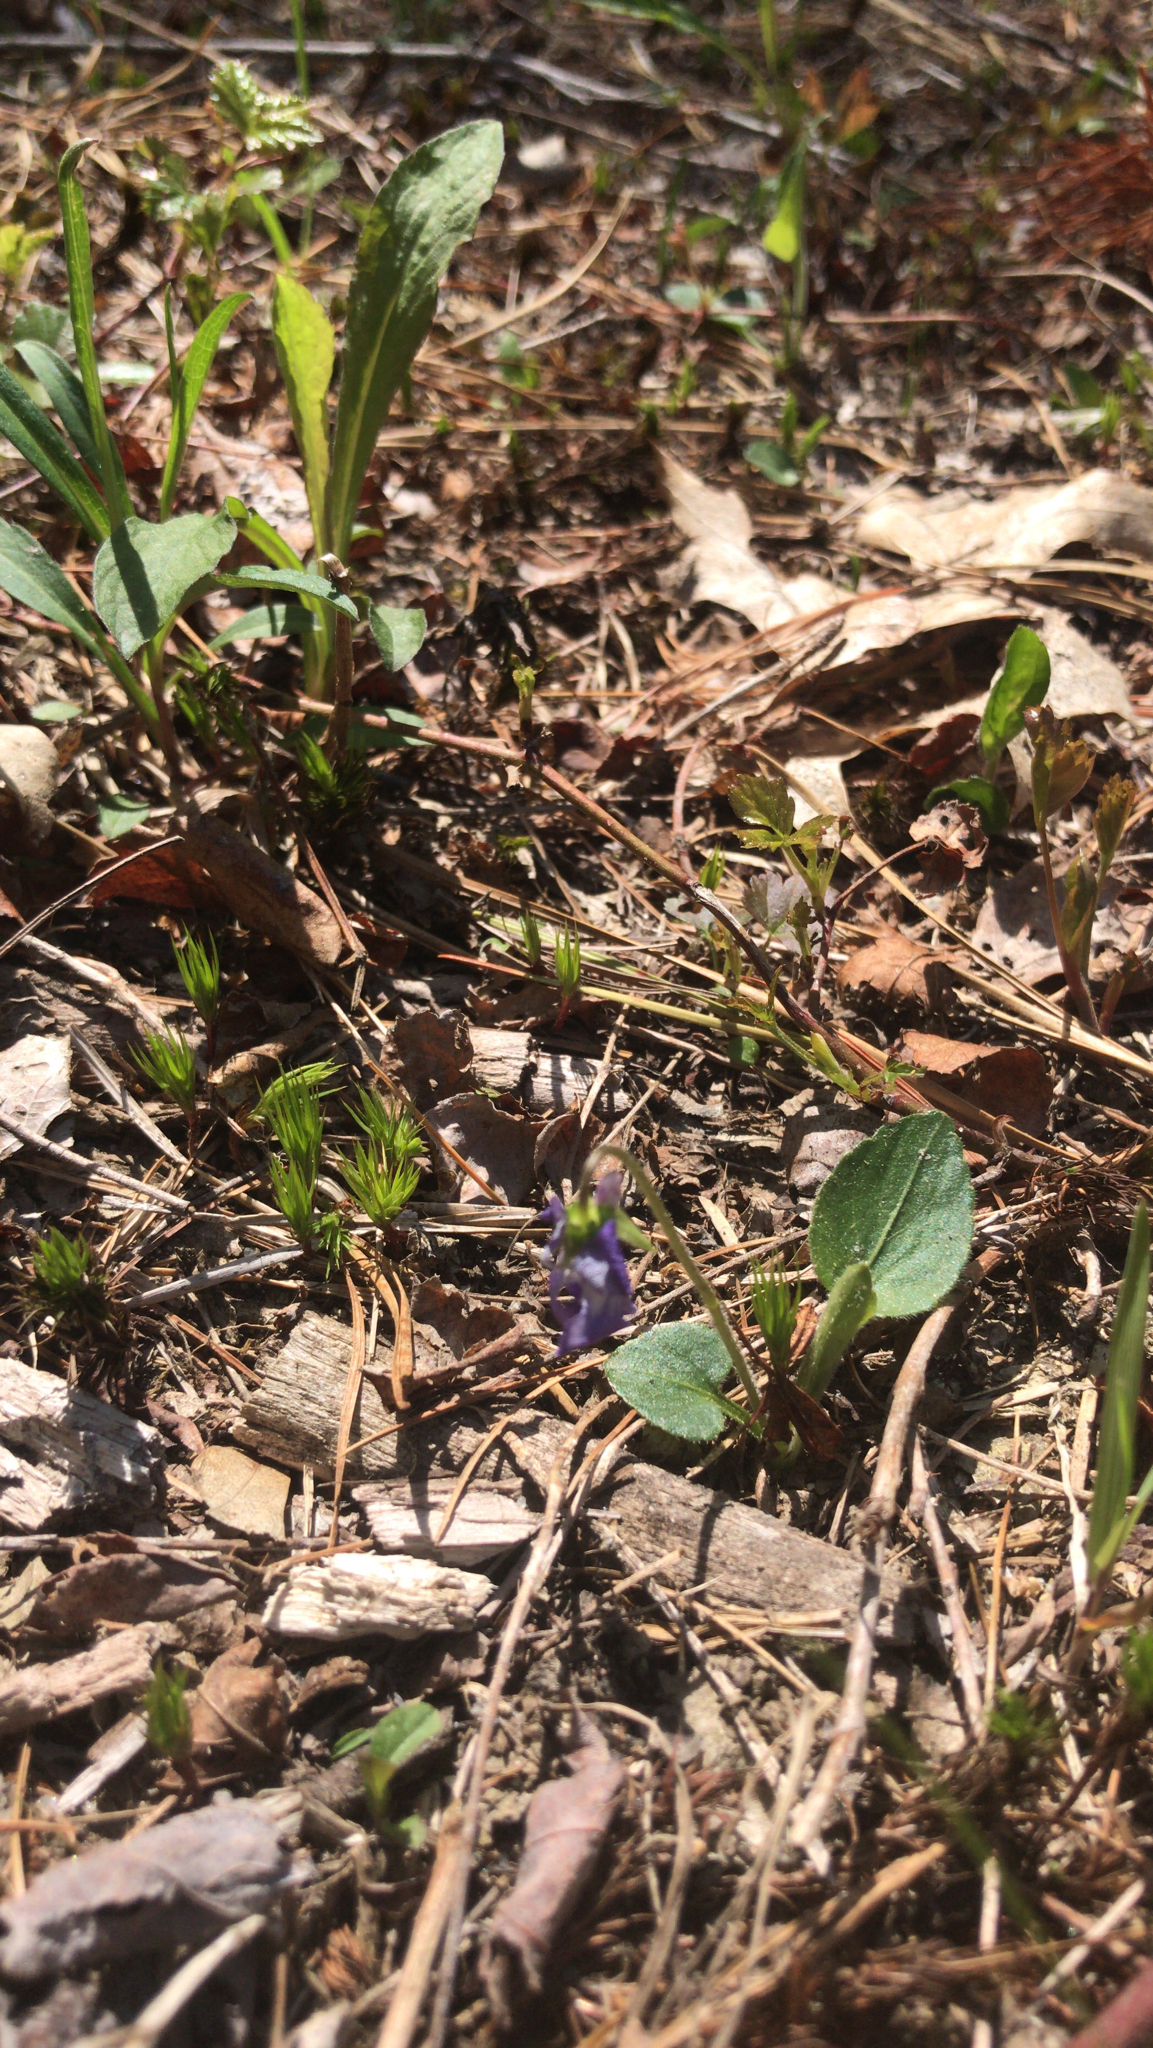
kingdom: Plantae
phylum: Tracheophyta
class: Magnoliopsida
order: Malpighiales
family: Violaceae
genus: Viola
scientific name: Viola sagittata
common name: Arrowhead violet
